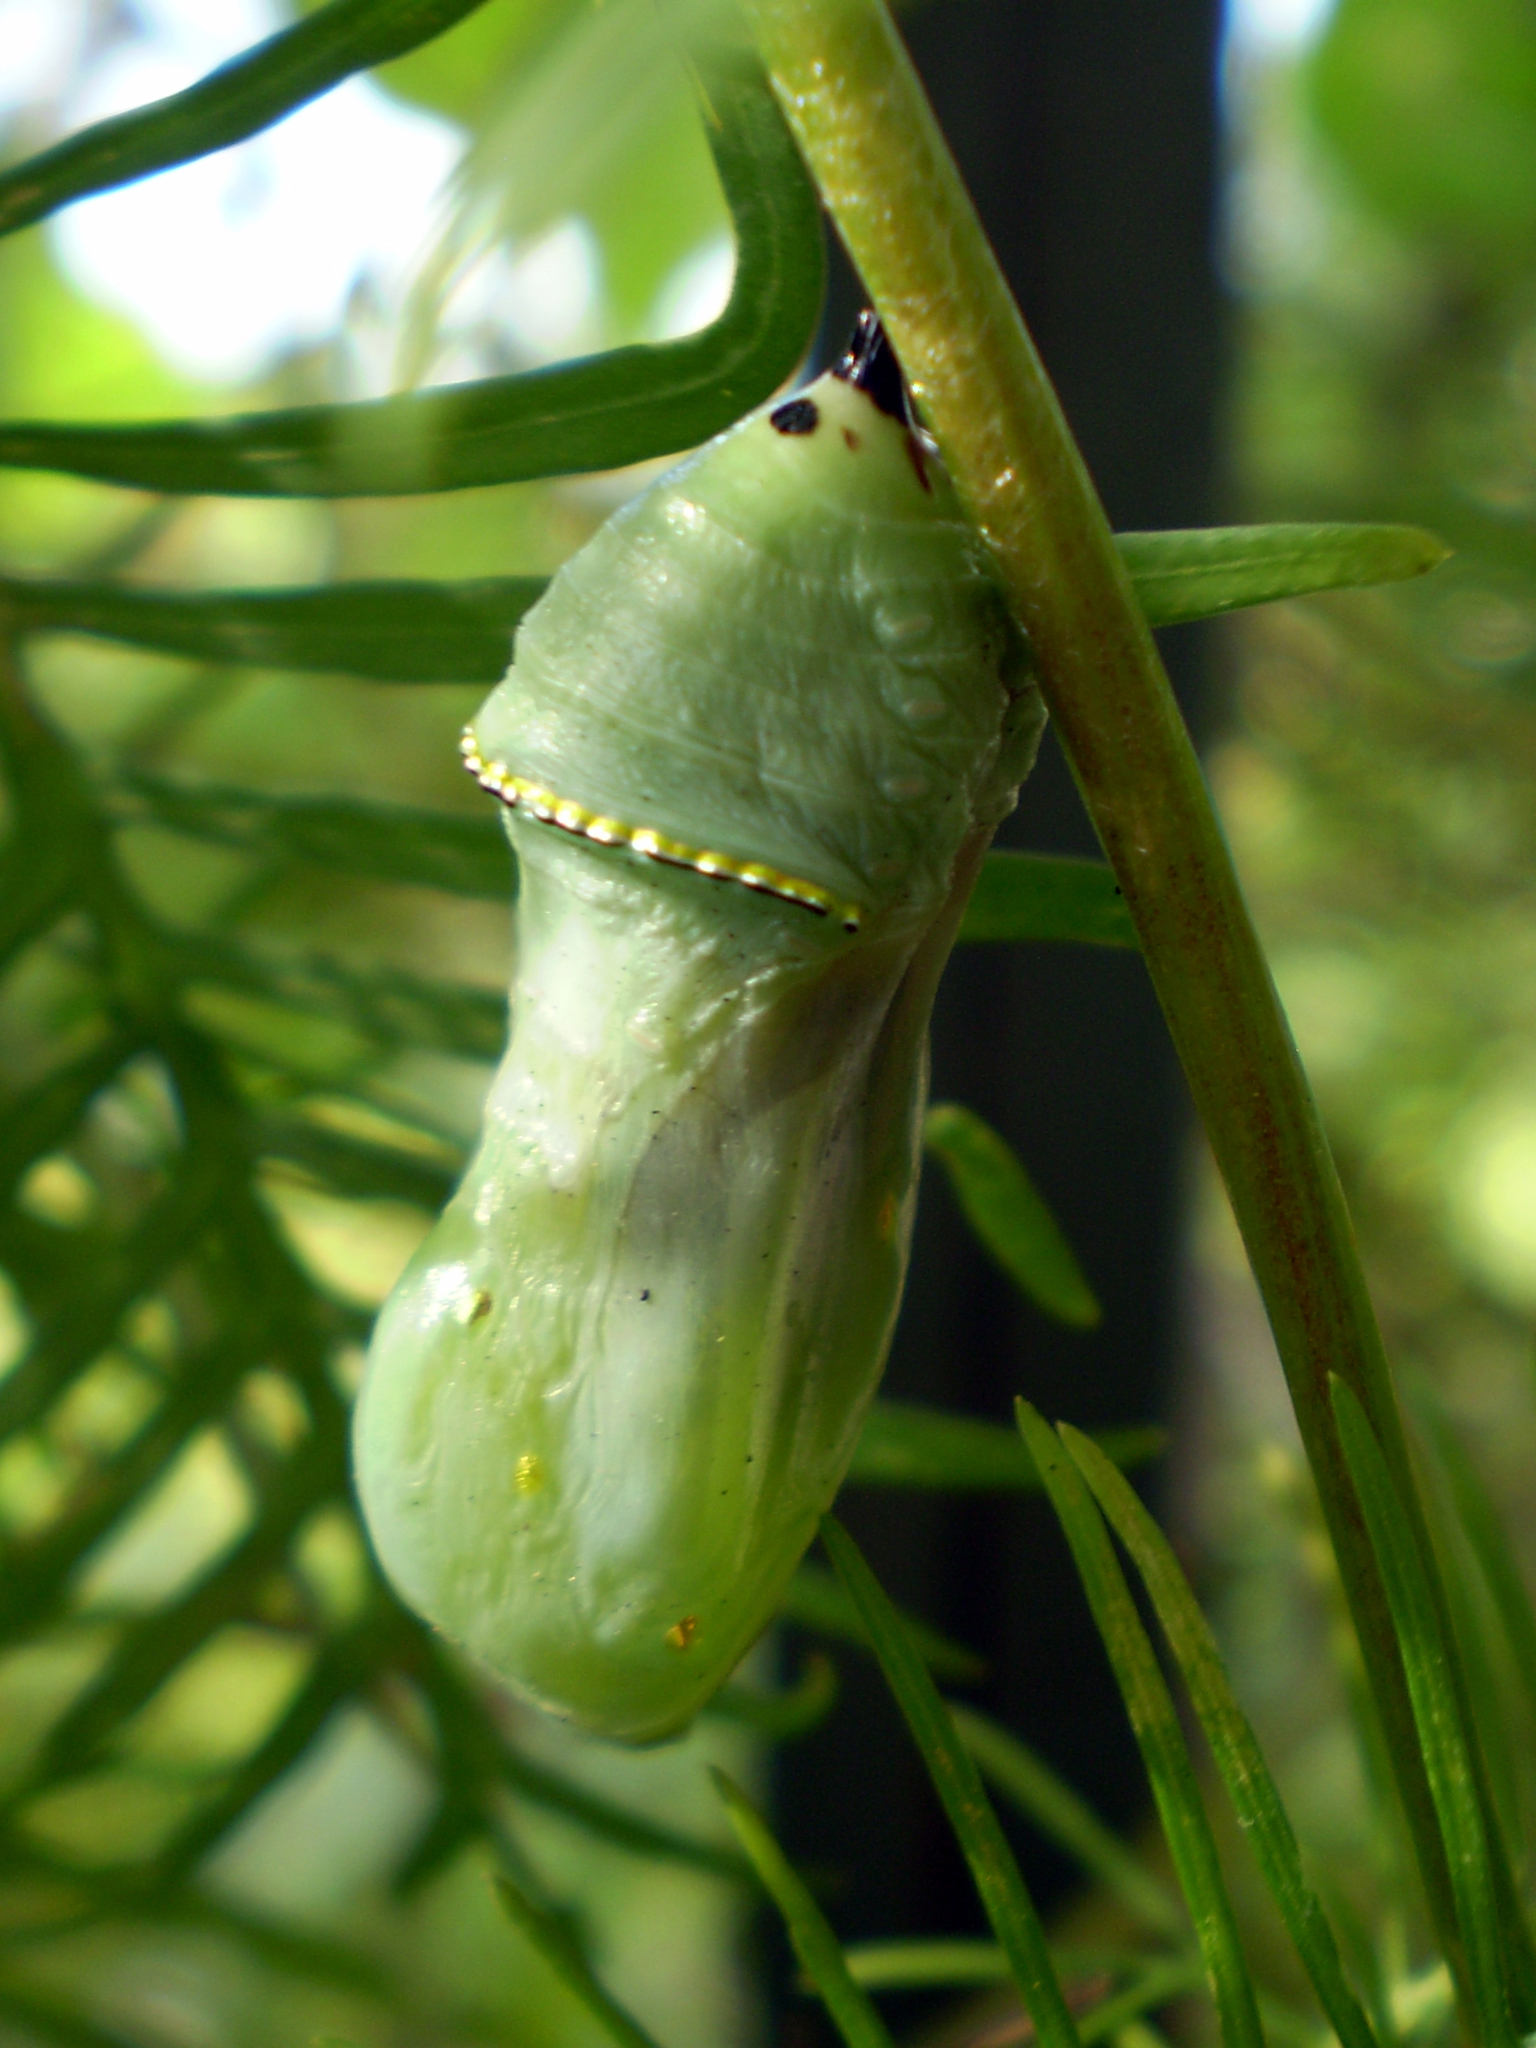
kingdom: Animalia
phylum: Arthropoda
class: Insecta
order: Lepidoptera
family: Nymphalidae
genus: Danaus
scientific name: Danaus plexippus
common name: Monarch
